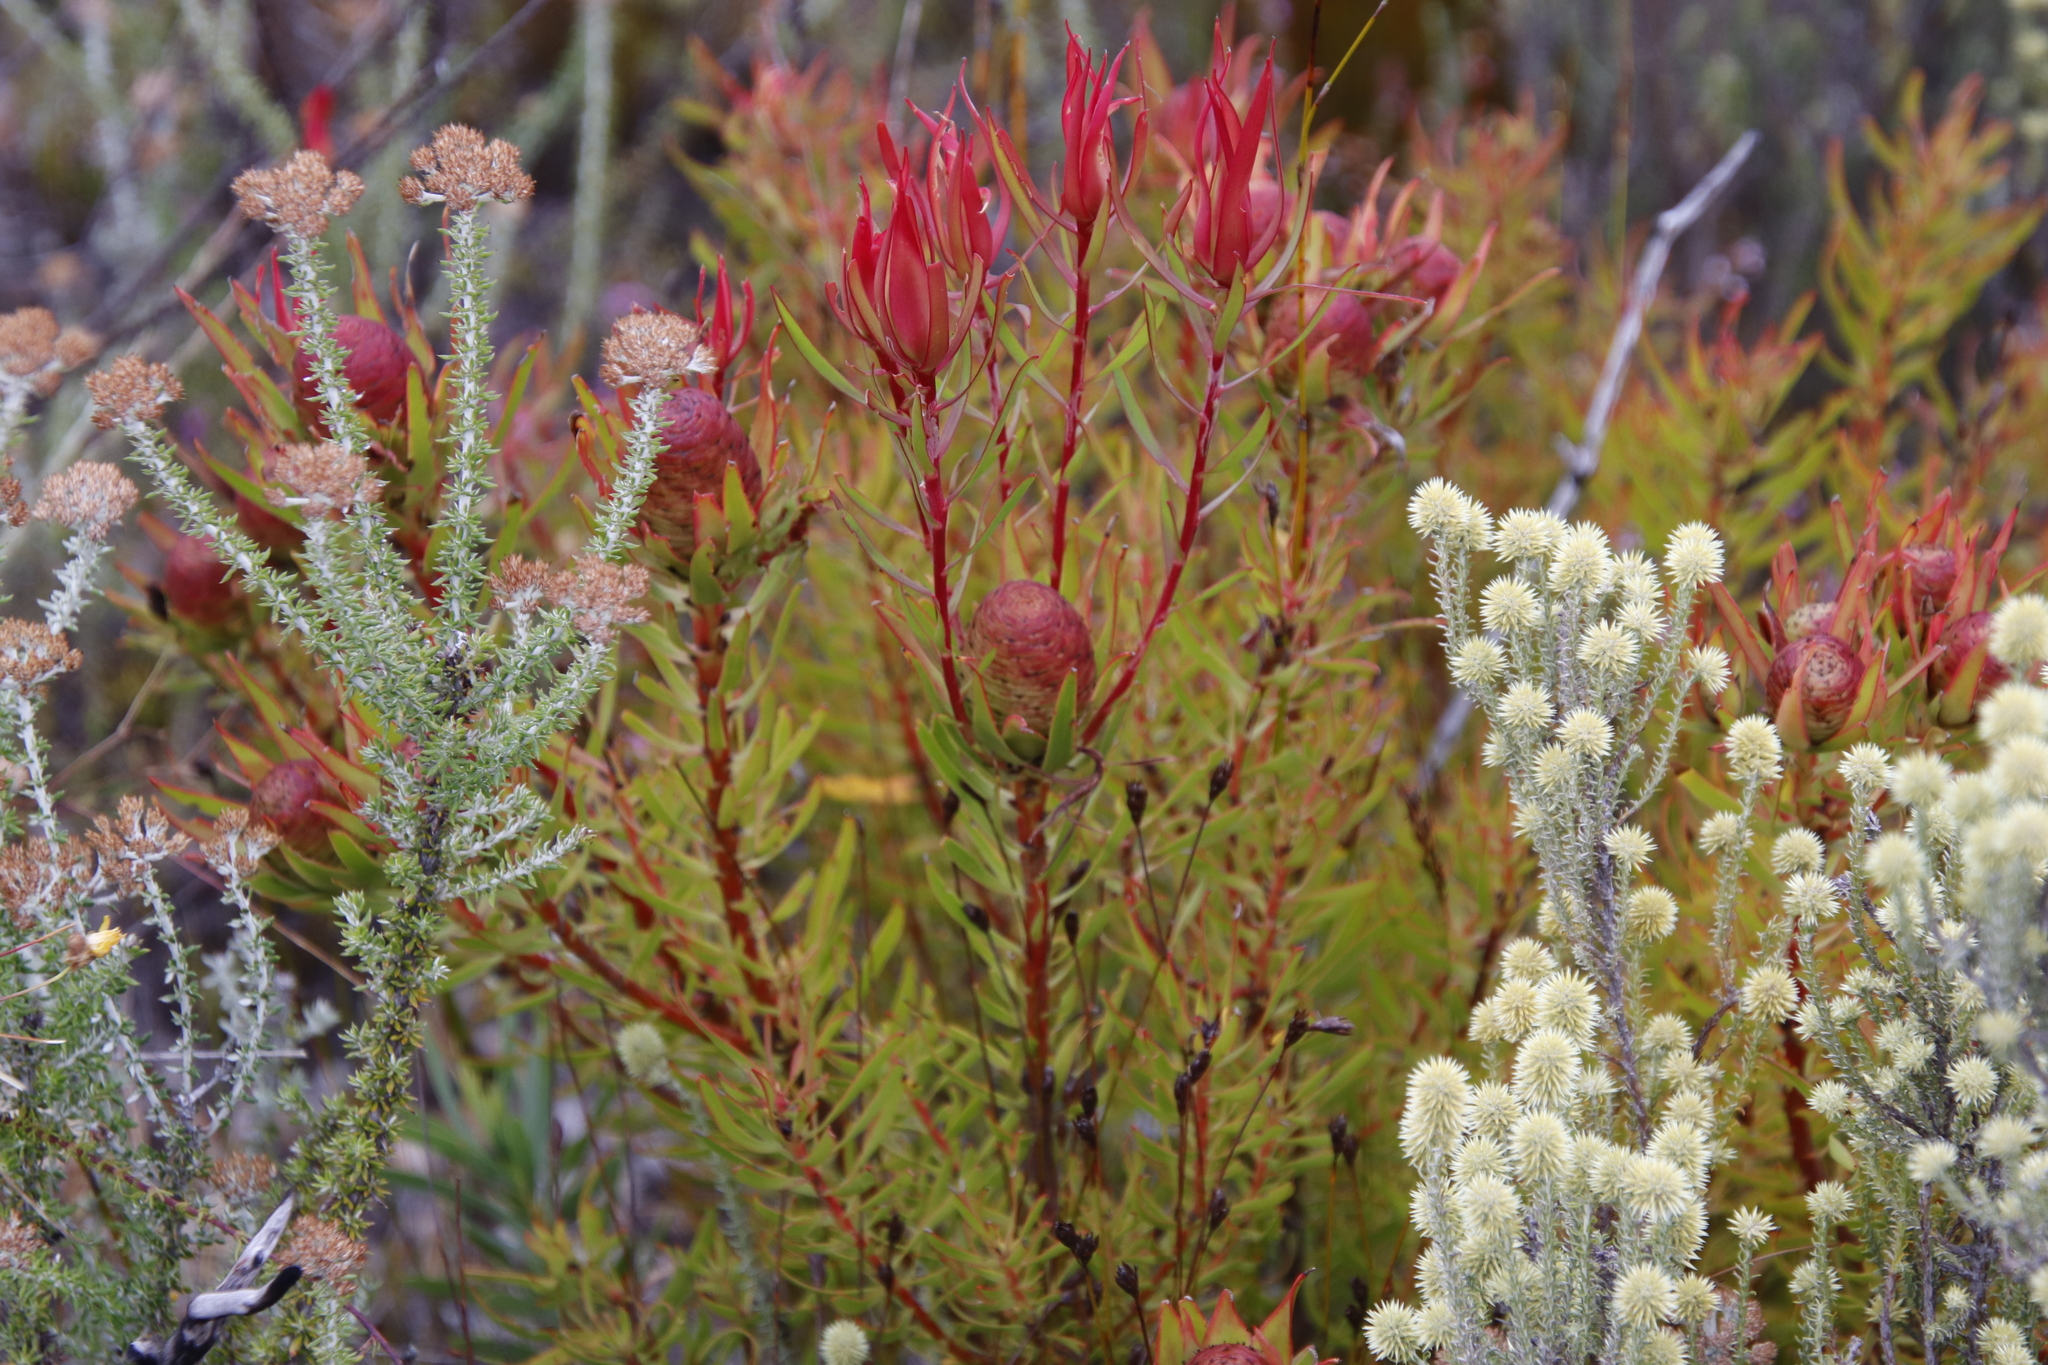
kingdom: Plantae
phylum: Tracheophyta
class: Magnoliopsida
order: Proteales
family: Proteaceae
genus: Leucadendron
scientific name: Leucadendron spissifolium
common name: Spear-leaf conebush
